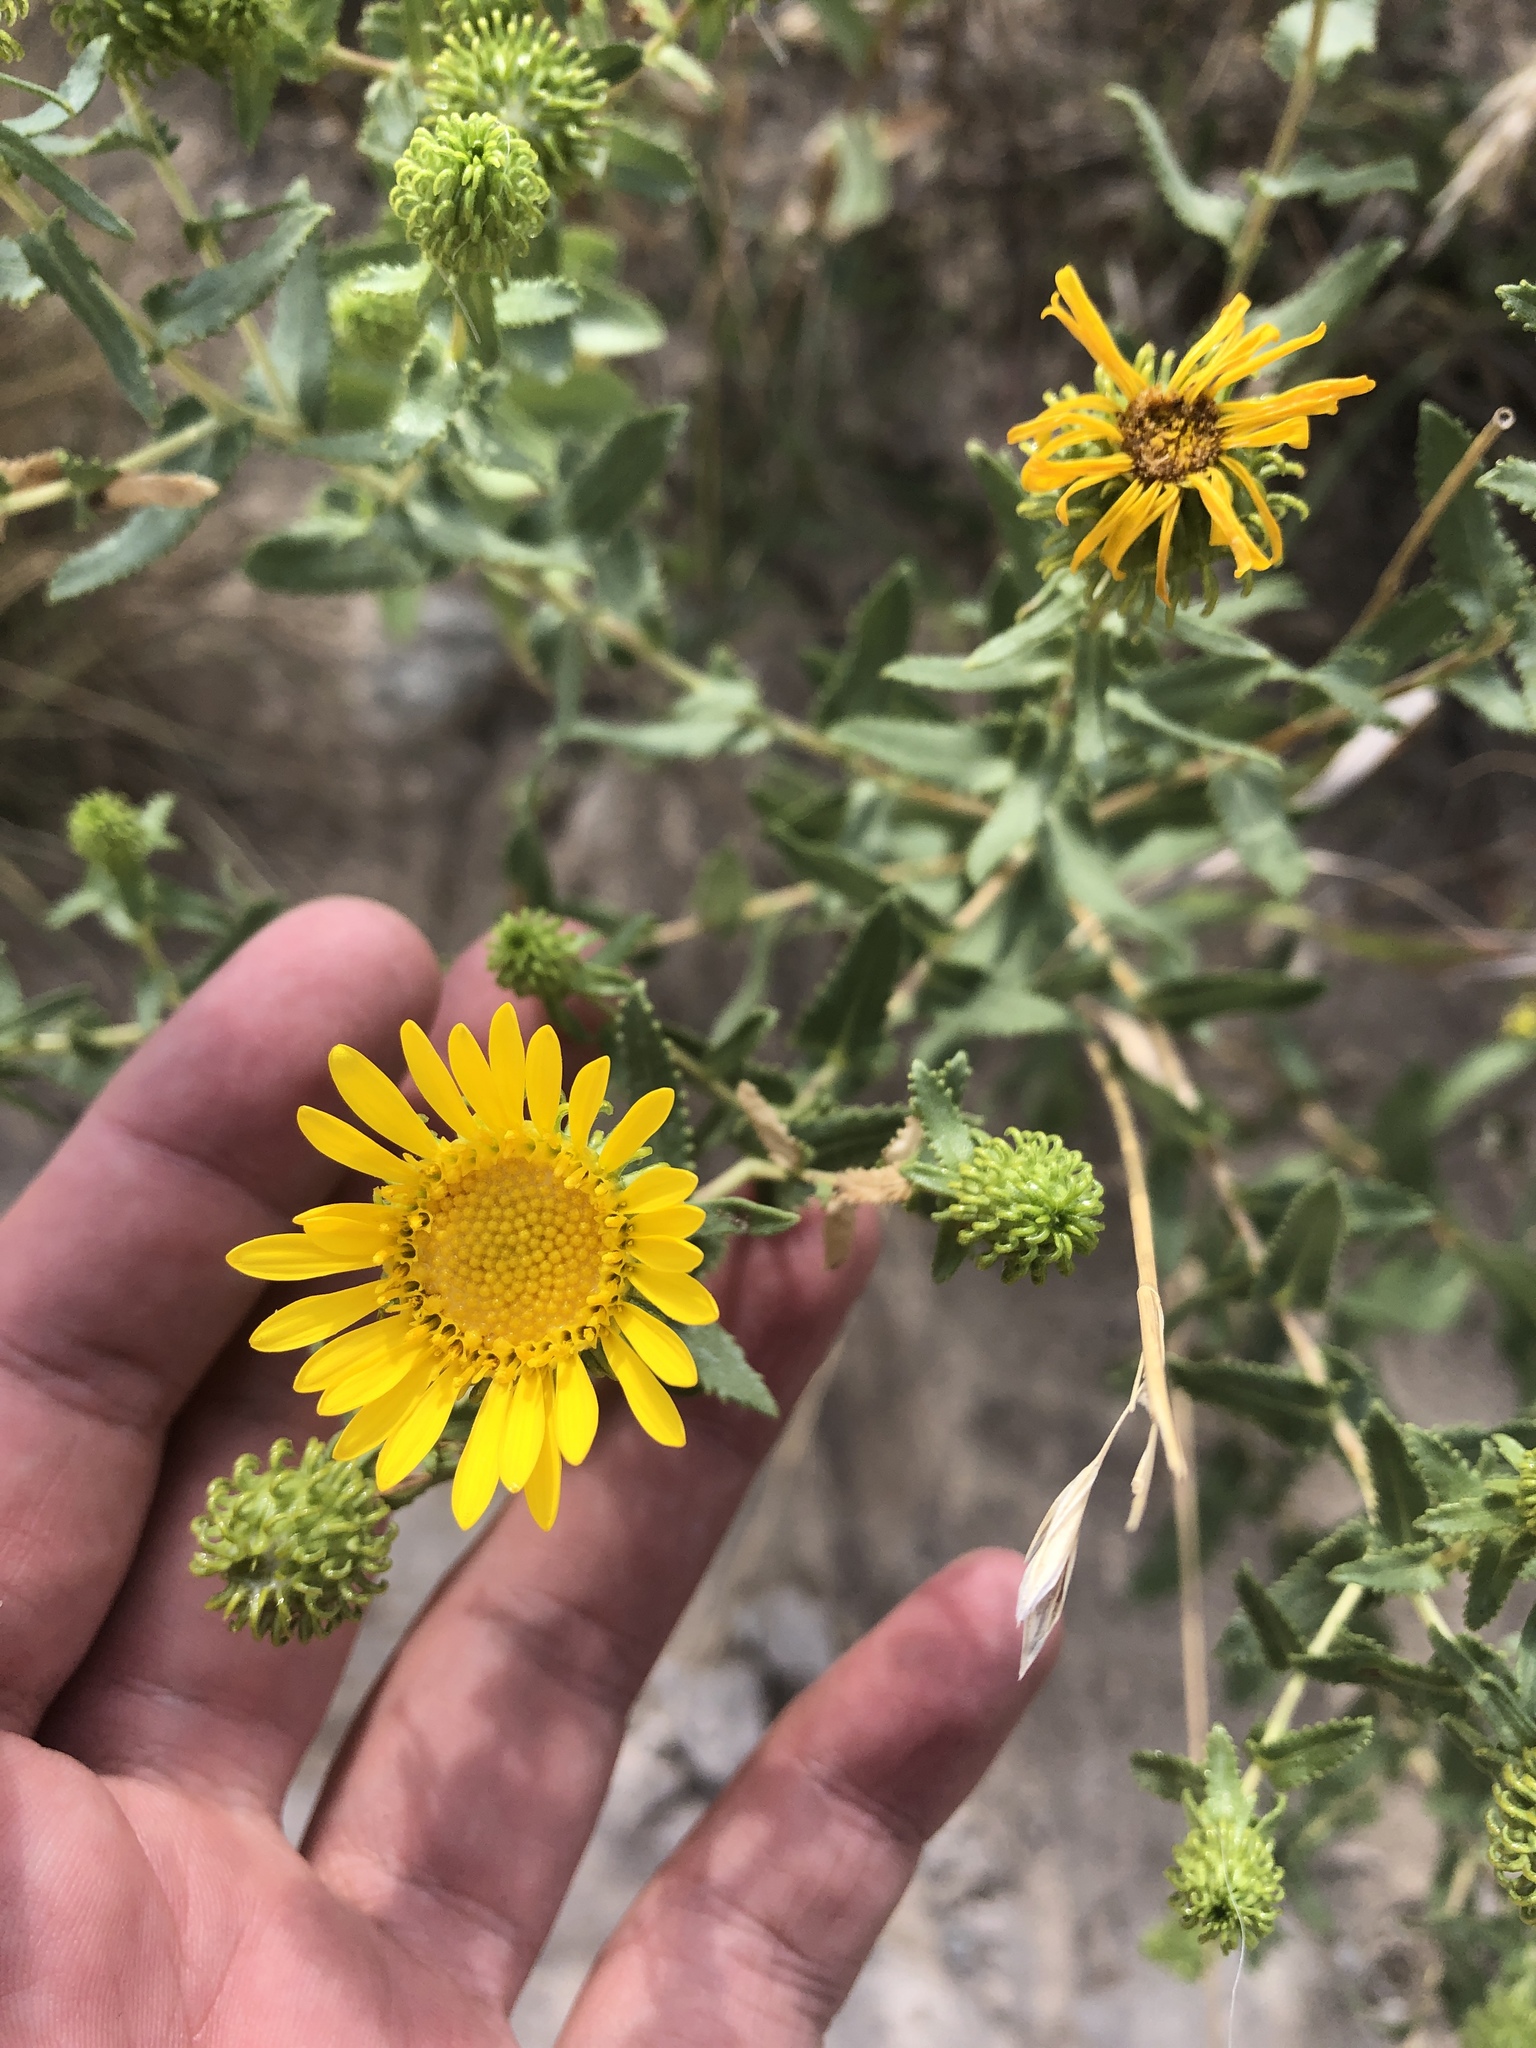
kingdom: Plantae
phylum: Tracheophyta
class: Magnoliopsida
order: Asterales
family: Asteraceae
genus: Grindelia
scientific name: Grindelia squarrosa
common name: Curly-cup gumweed
